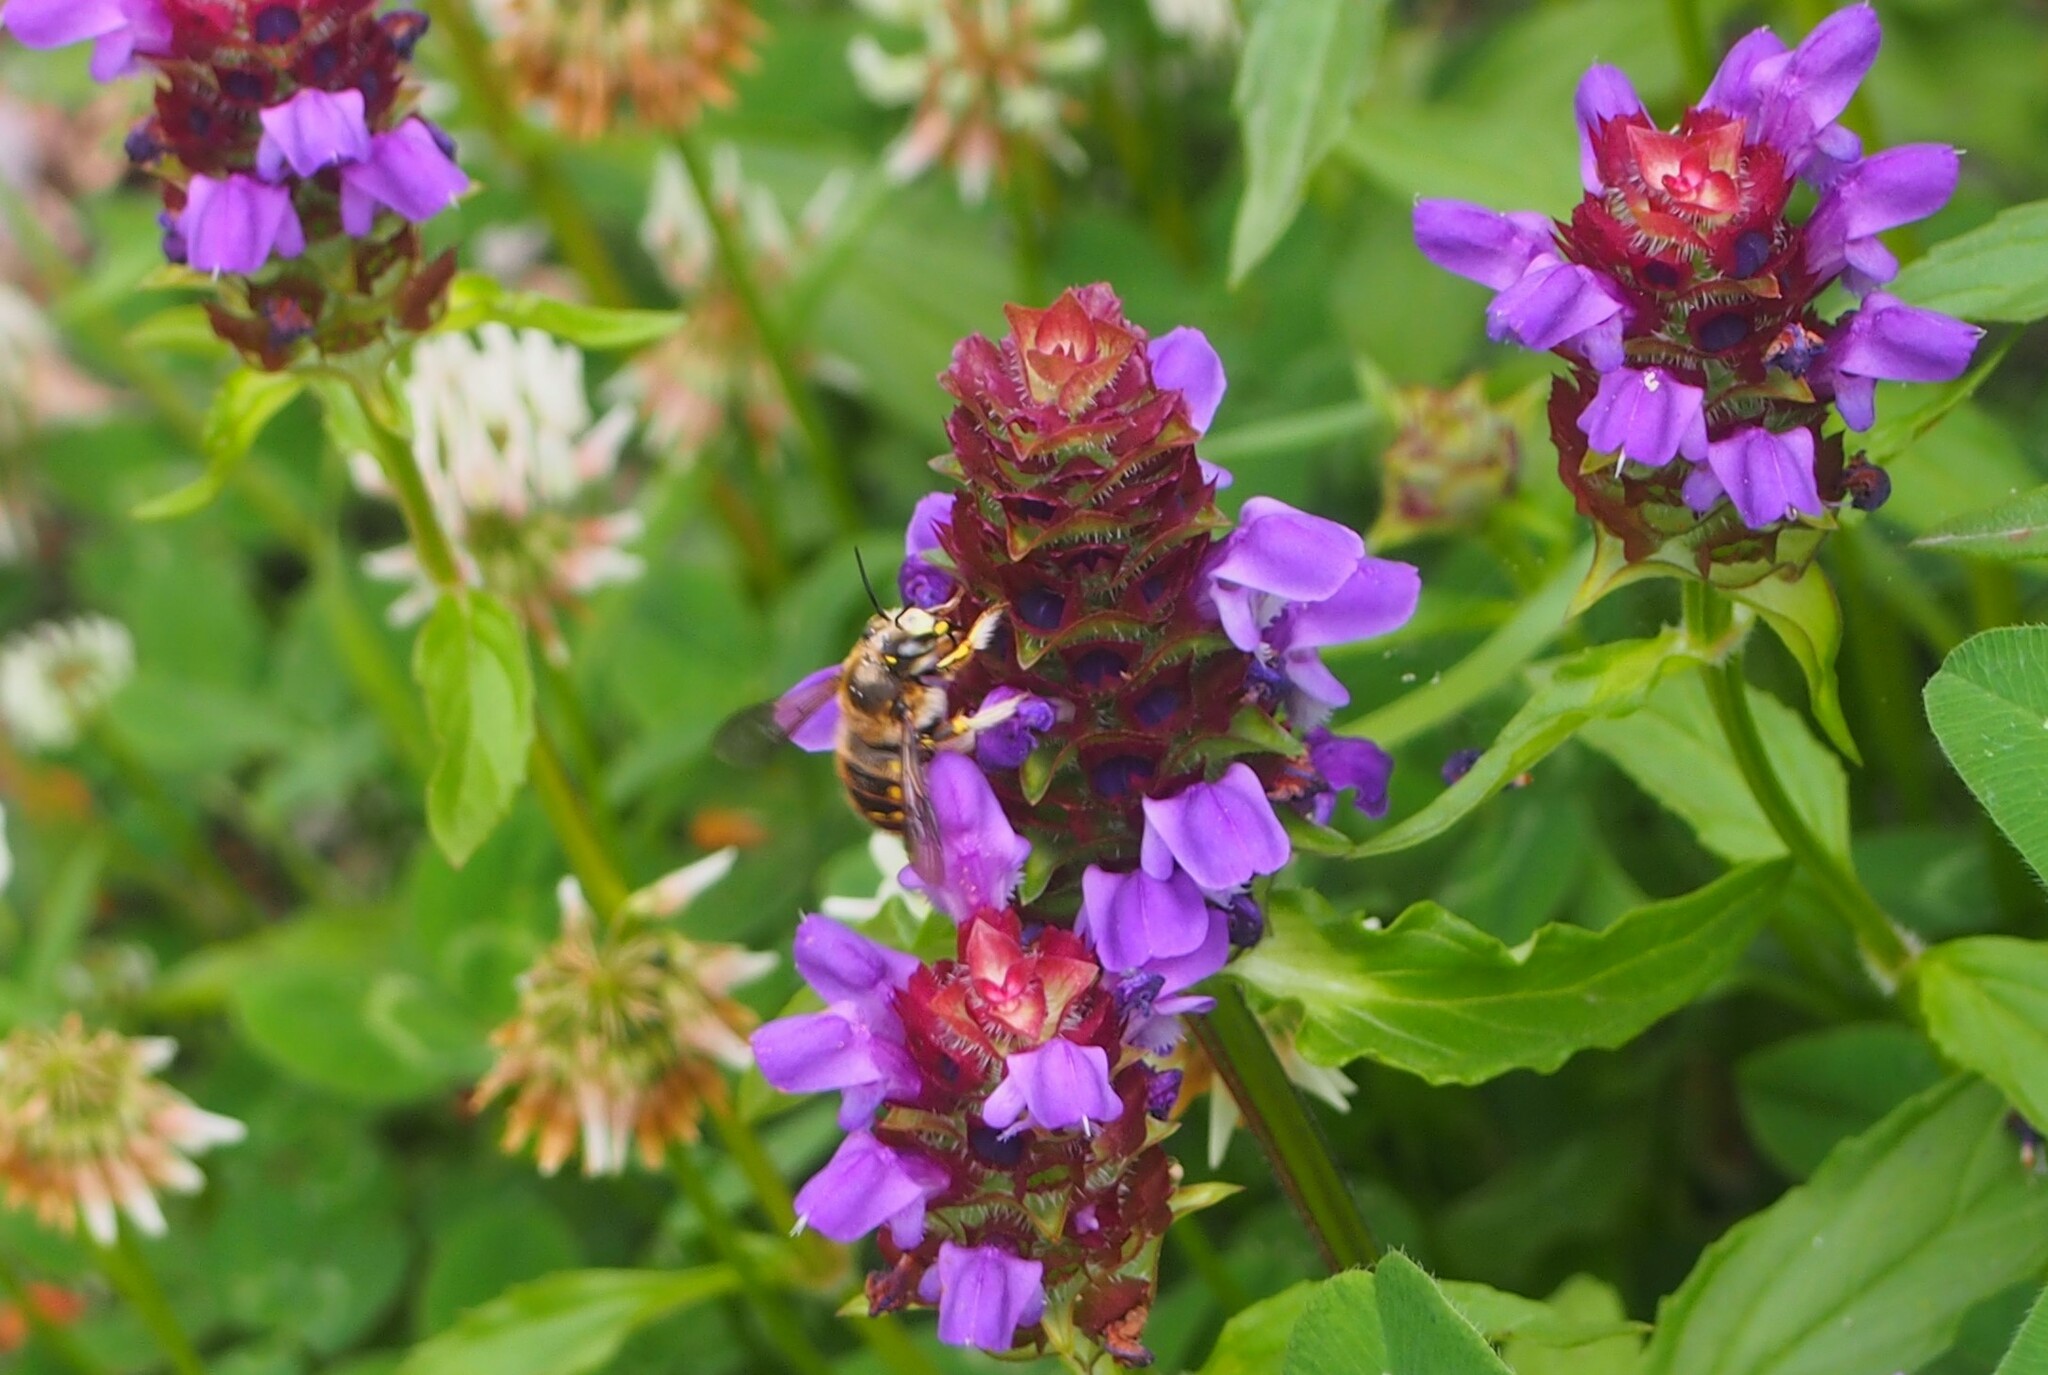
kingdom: Animalia
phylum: Arthropoda
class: Insecta
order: Hymenoptera
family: Megachilidae
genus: Anthidium
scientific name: Anthidium manicatum
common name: Wool carder bee
